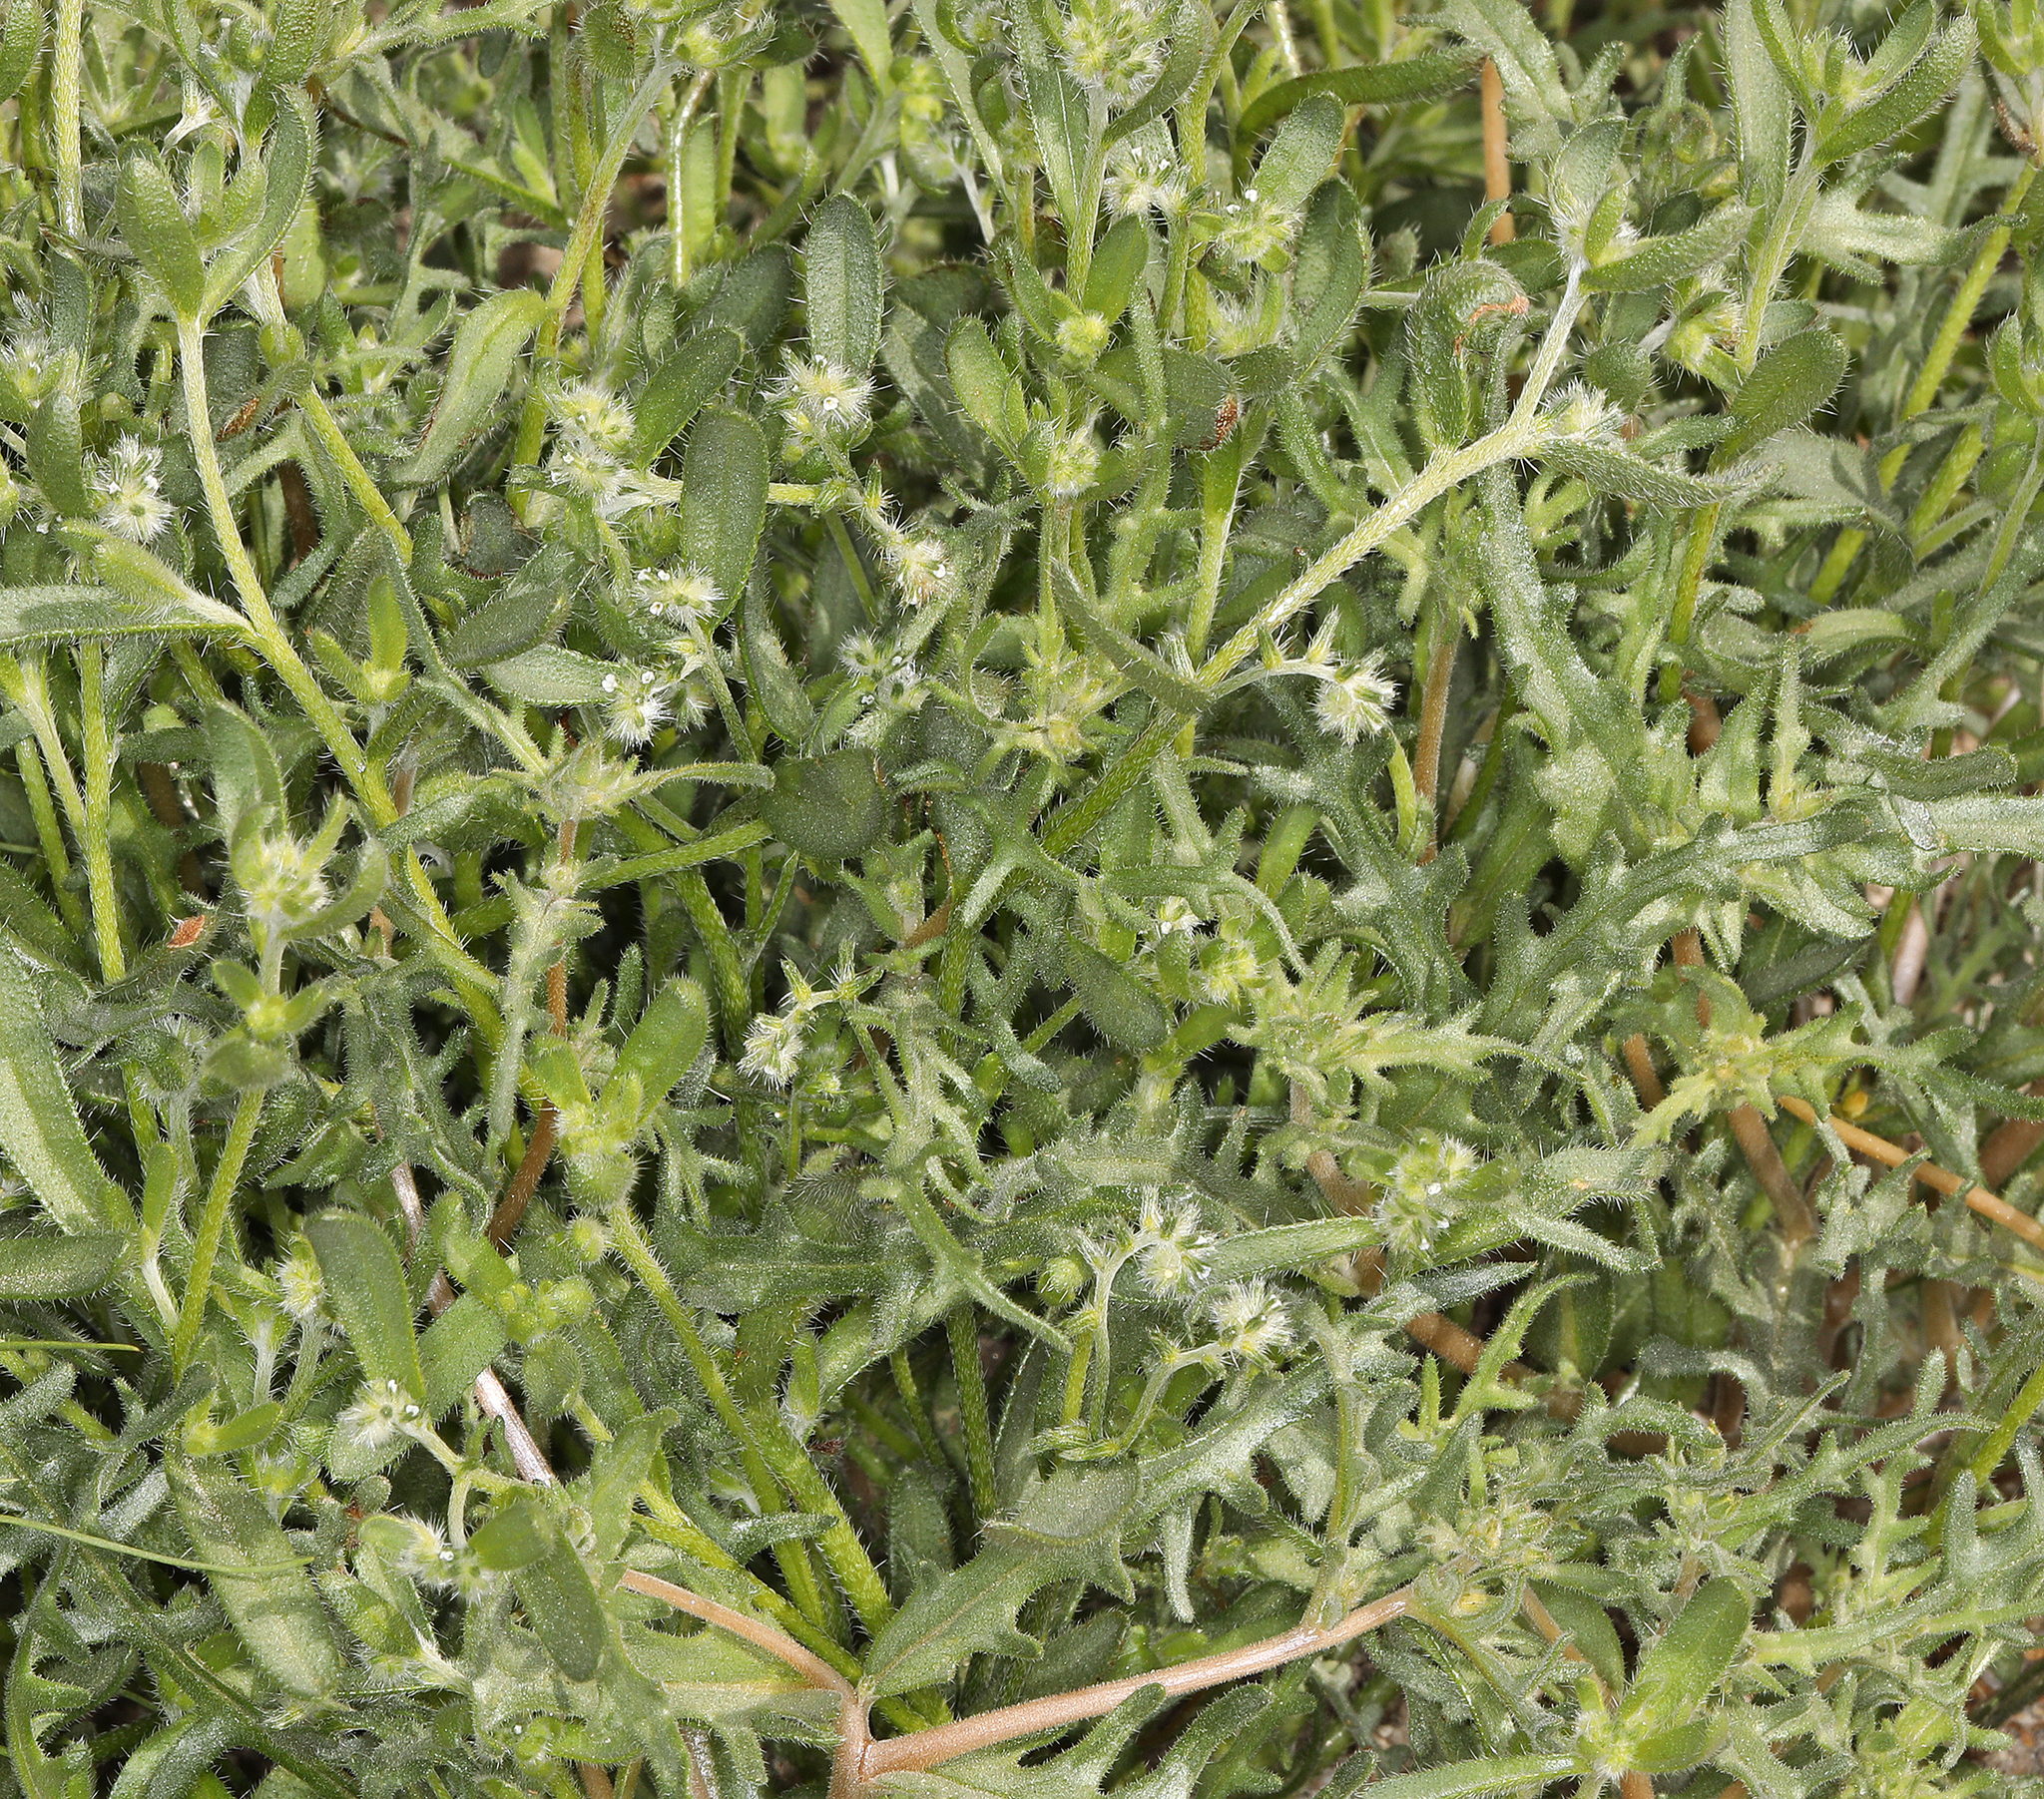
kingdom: Plantae
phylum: Tracheophyta
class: Magnoliopsida
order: Boraginales
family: Boraginaceae
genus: Cryptantha
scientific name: Cryptantha recurvata
